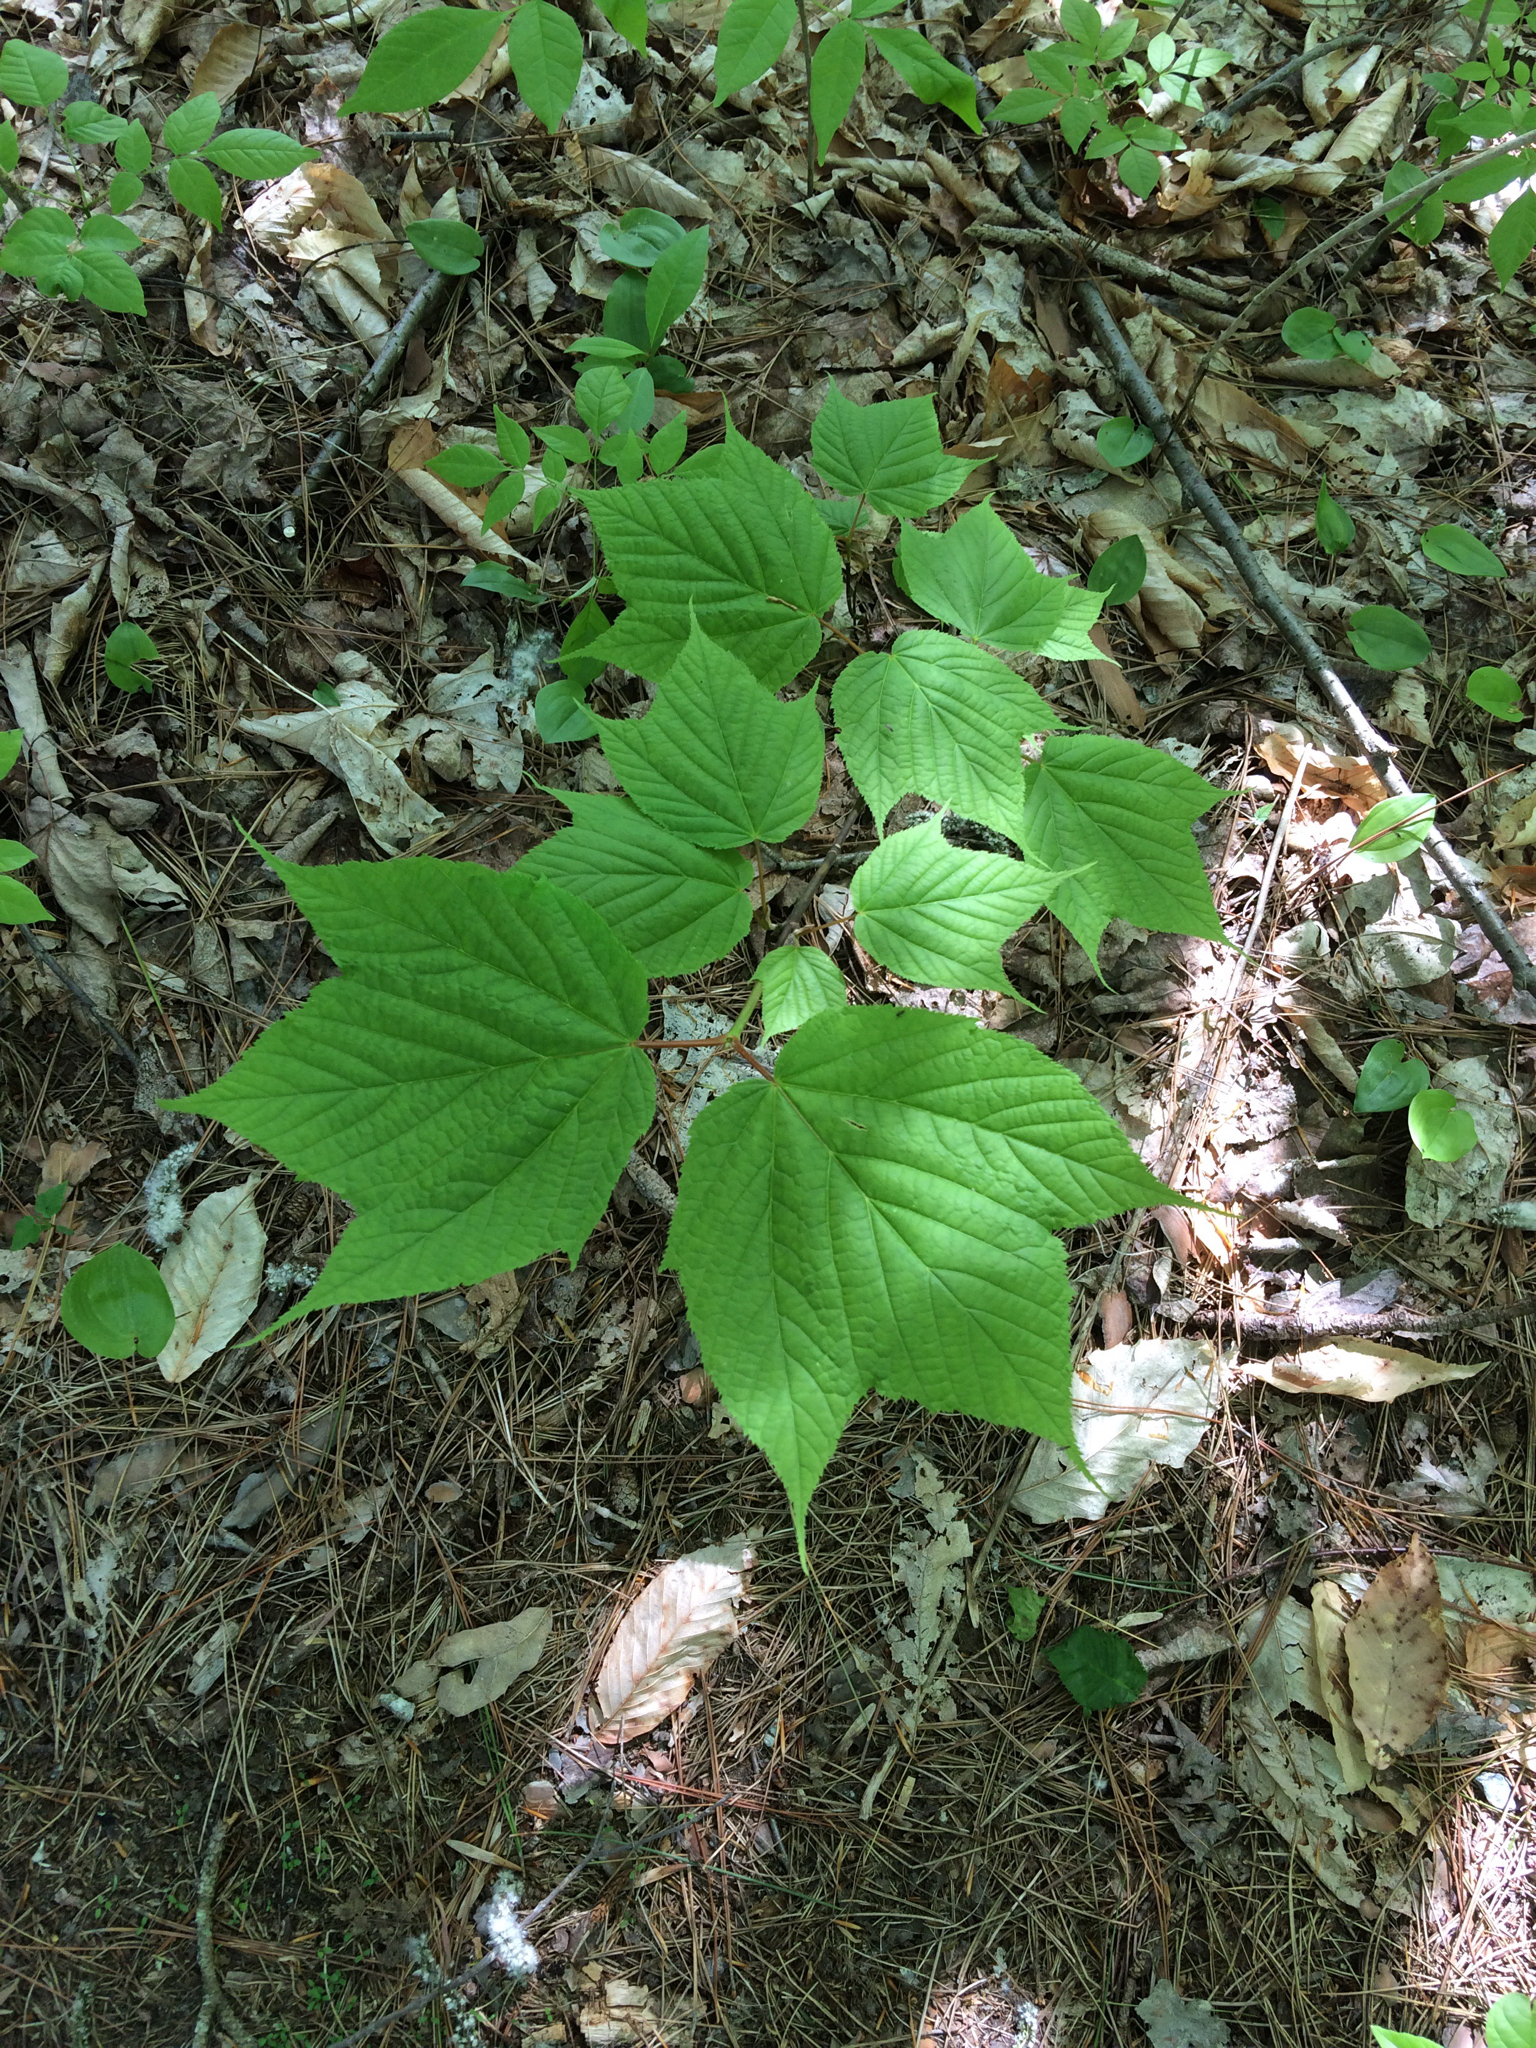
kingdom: Plantae
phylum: Tracheophyta
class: Magnoliopsida
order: Sapindales
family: Sapindaceae
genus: Acer
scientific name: Acer pensylvanicum
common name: Moosewood
